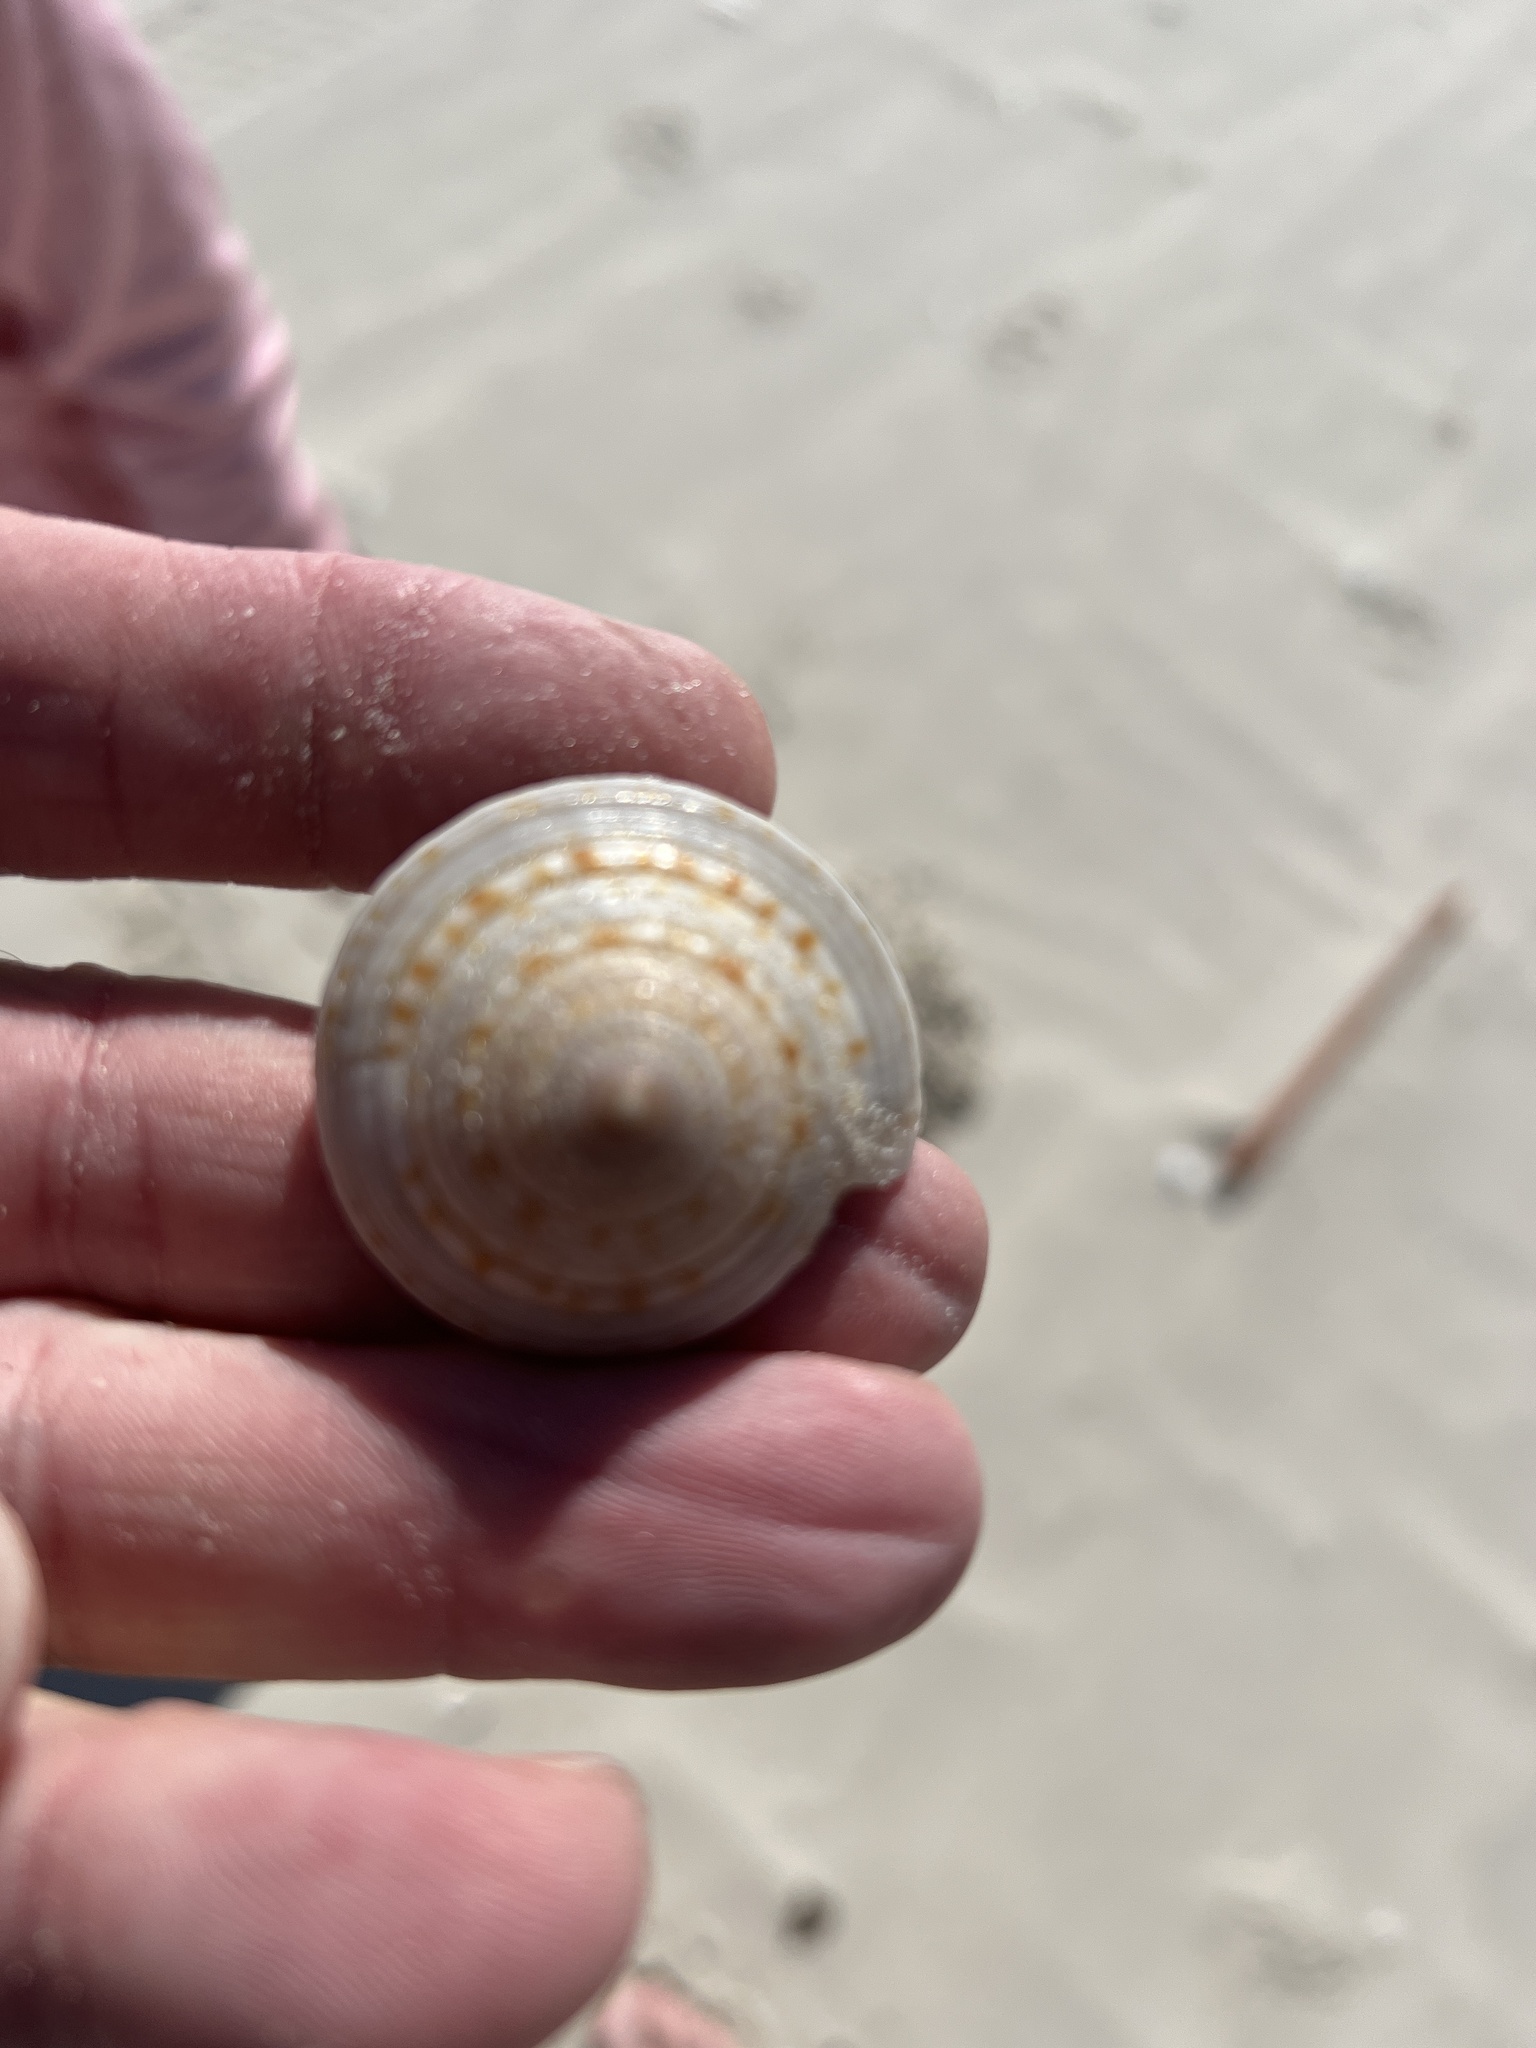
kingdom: Animalia
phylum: Mollusca
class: Gastropoda
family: Architectonicidae
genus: Architectonica
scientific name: Architectonica nobilis
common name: Common sundial
